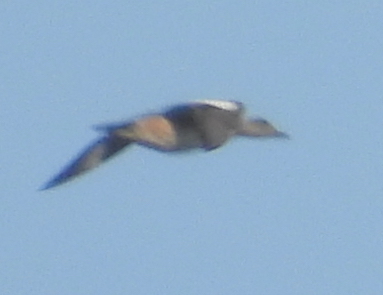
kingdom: Animalia
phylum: Chordata
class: Aves
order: Anseriformes
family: Anatidae
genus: Mareca
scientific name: Mareca americana
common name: American wigeon
